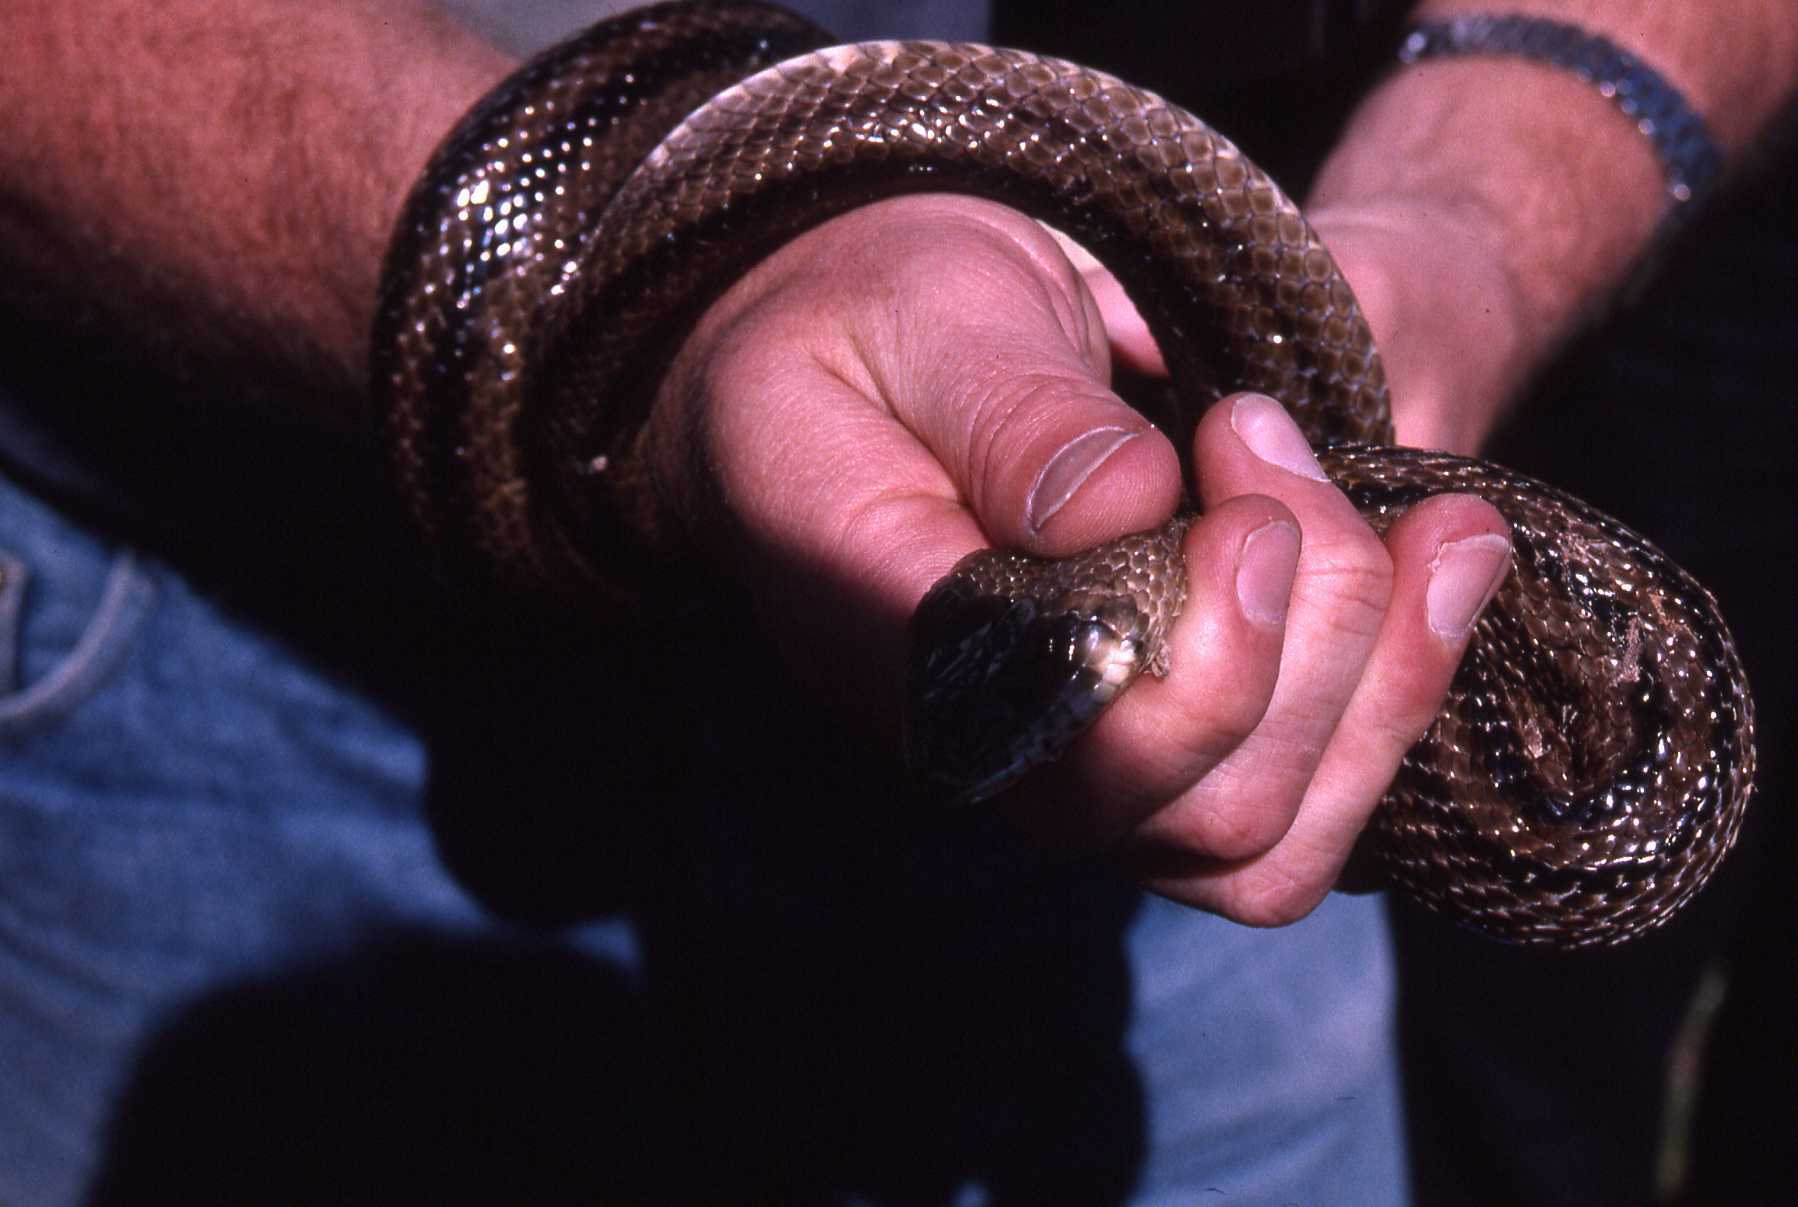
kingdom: Animalia
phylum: Chordata
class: Squamata
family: Colubridae
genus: Zamenis
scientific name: Zamenis scalaris
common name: Ladder snakes
